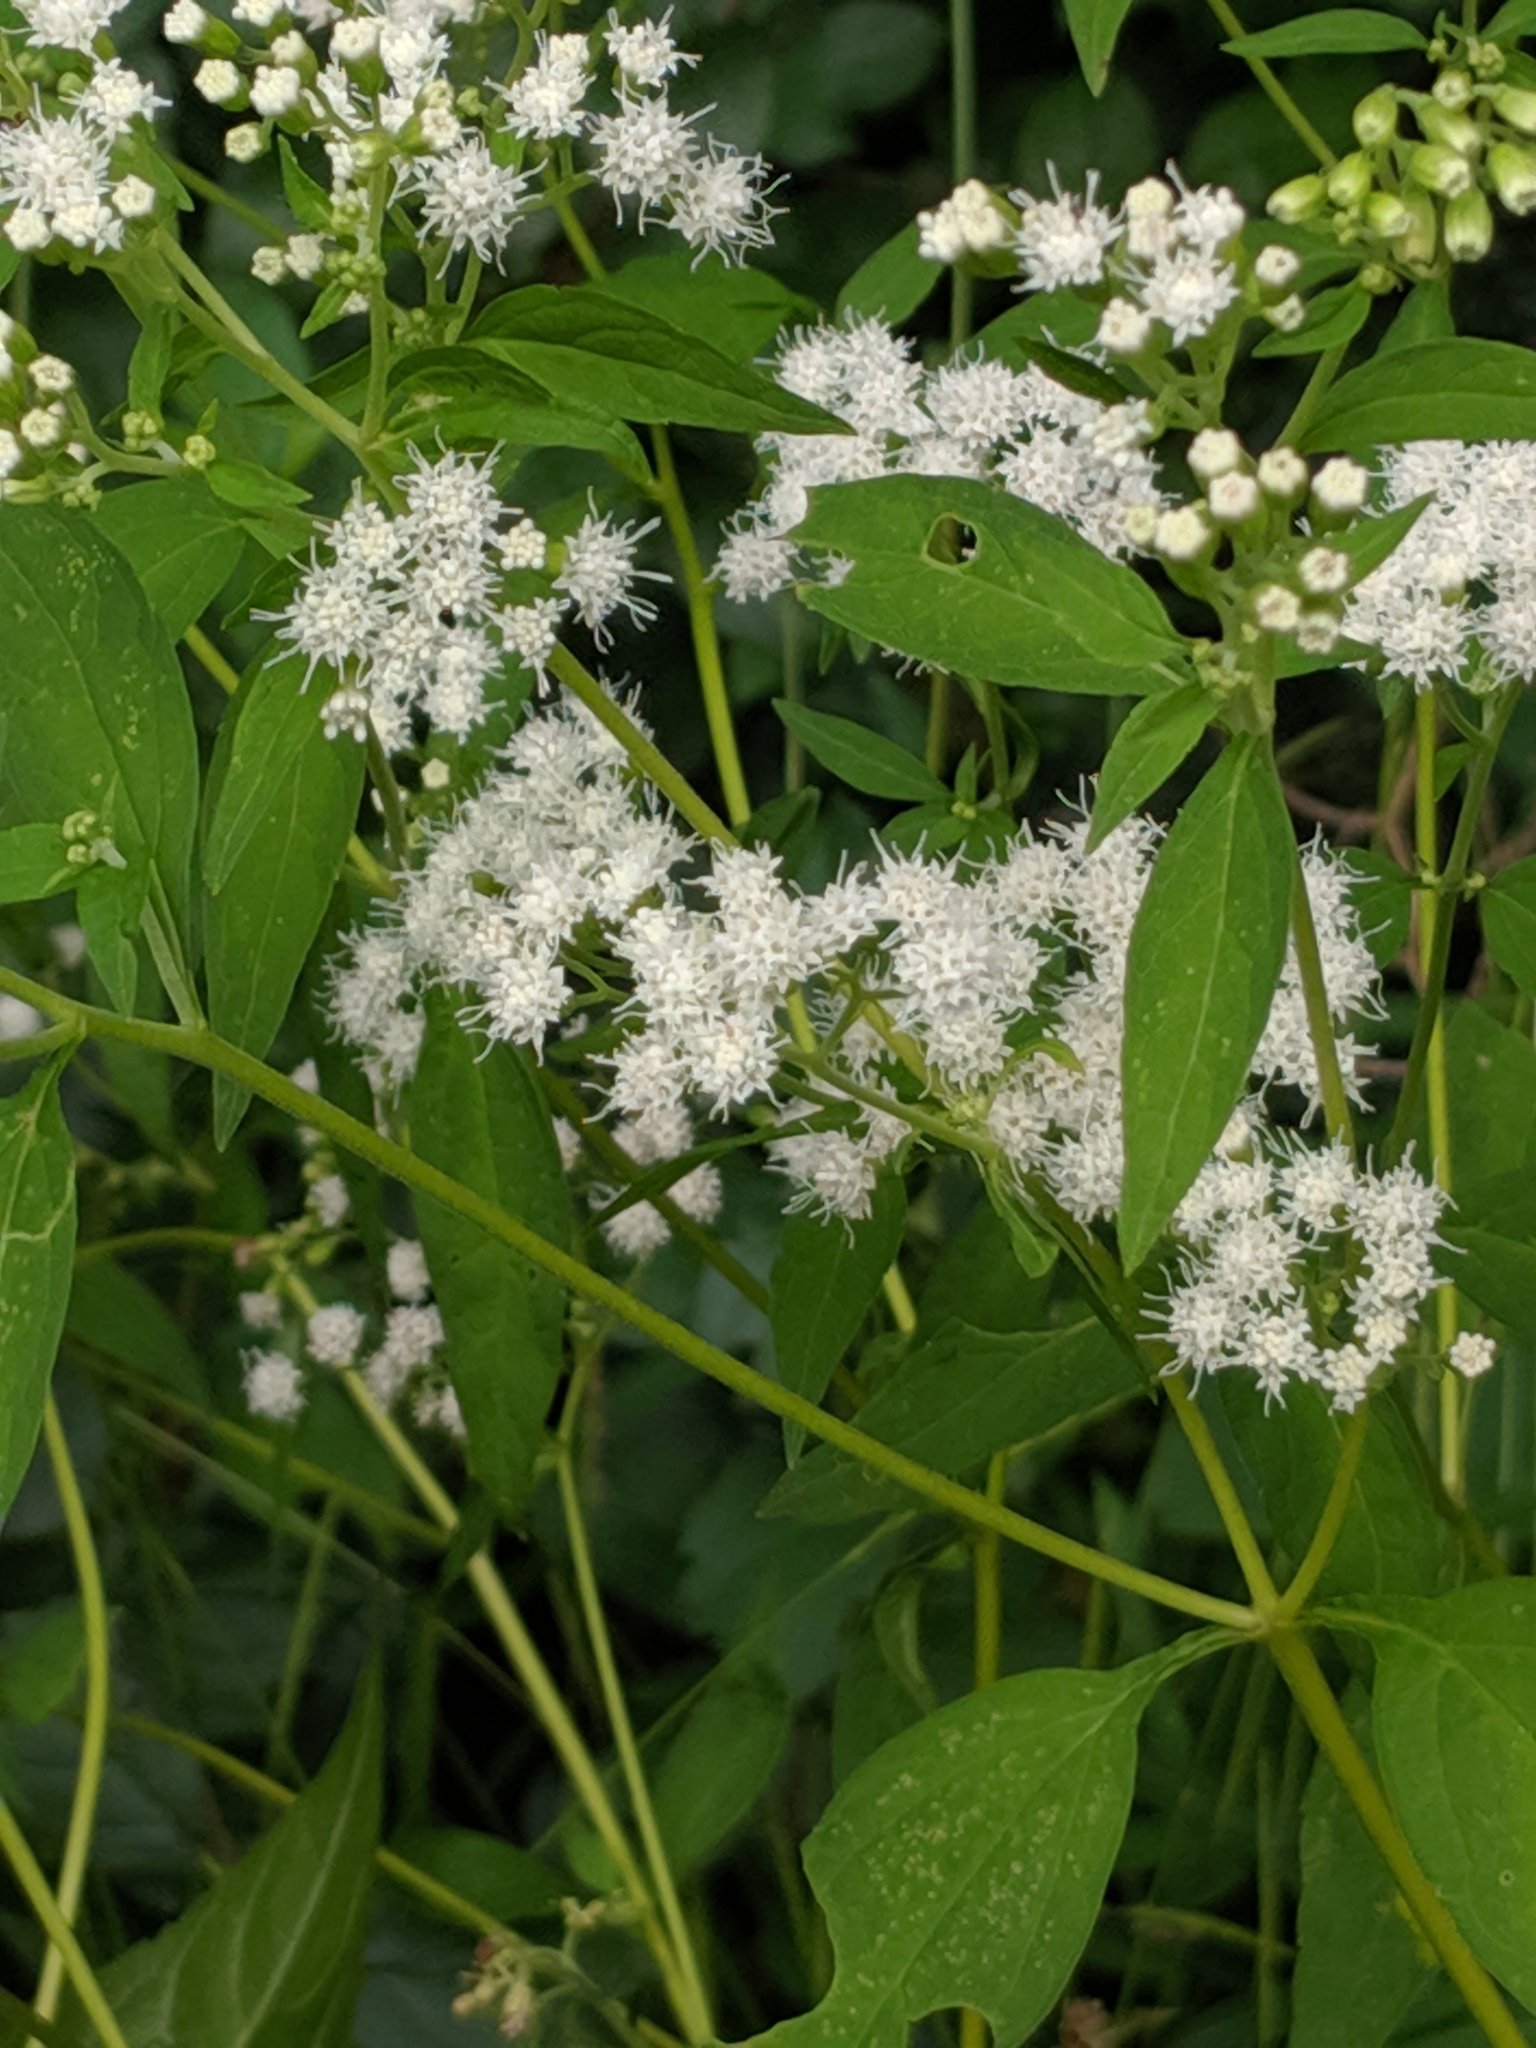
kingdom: Plantae
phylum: Tracheophyta
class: Magnoliopsida
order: Asterales
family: Asteraceae
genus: Ageratina
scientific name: Ageratina altissima
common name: White snakeroot
